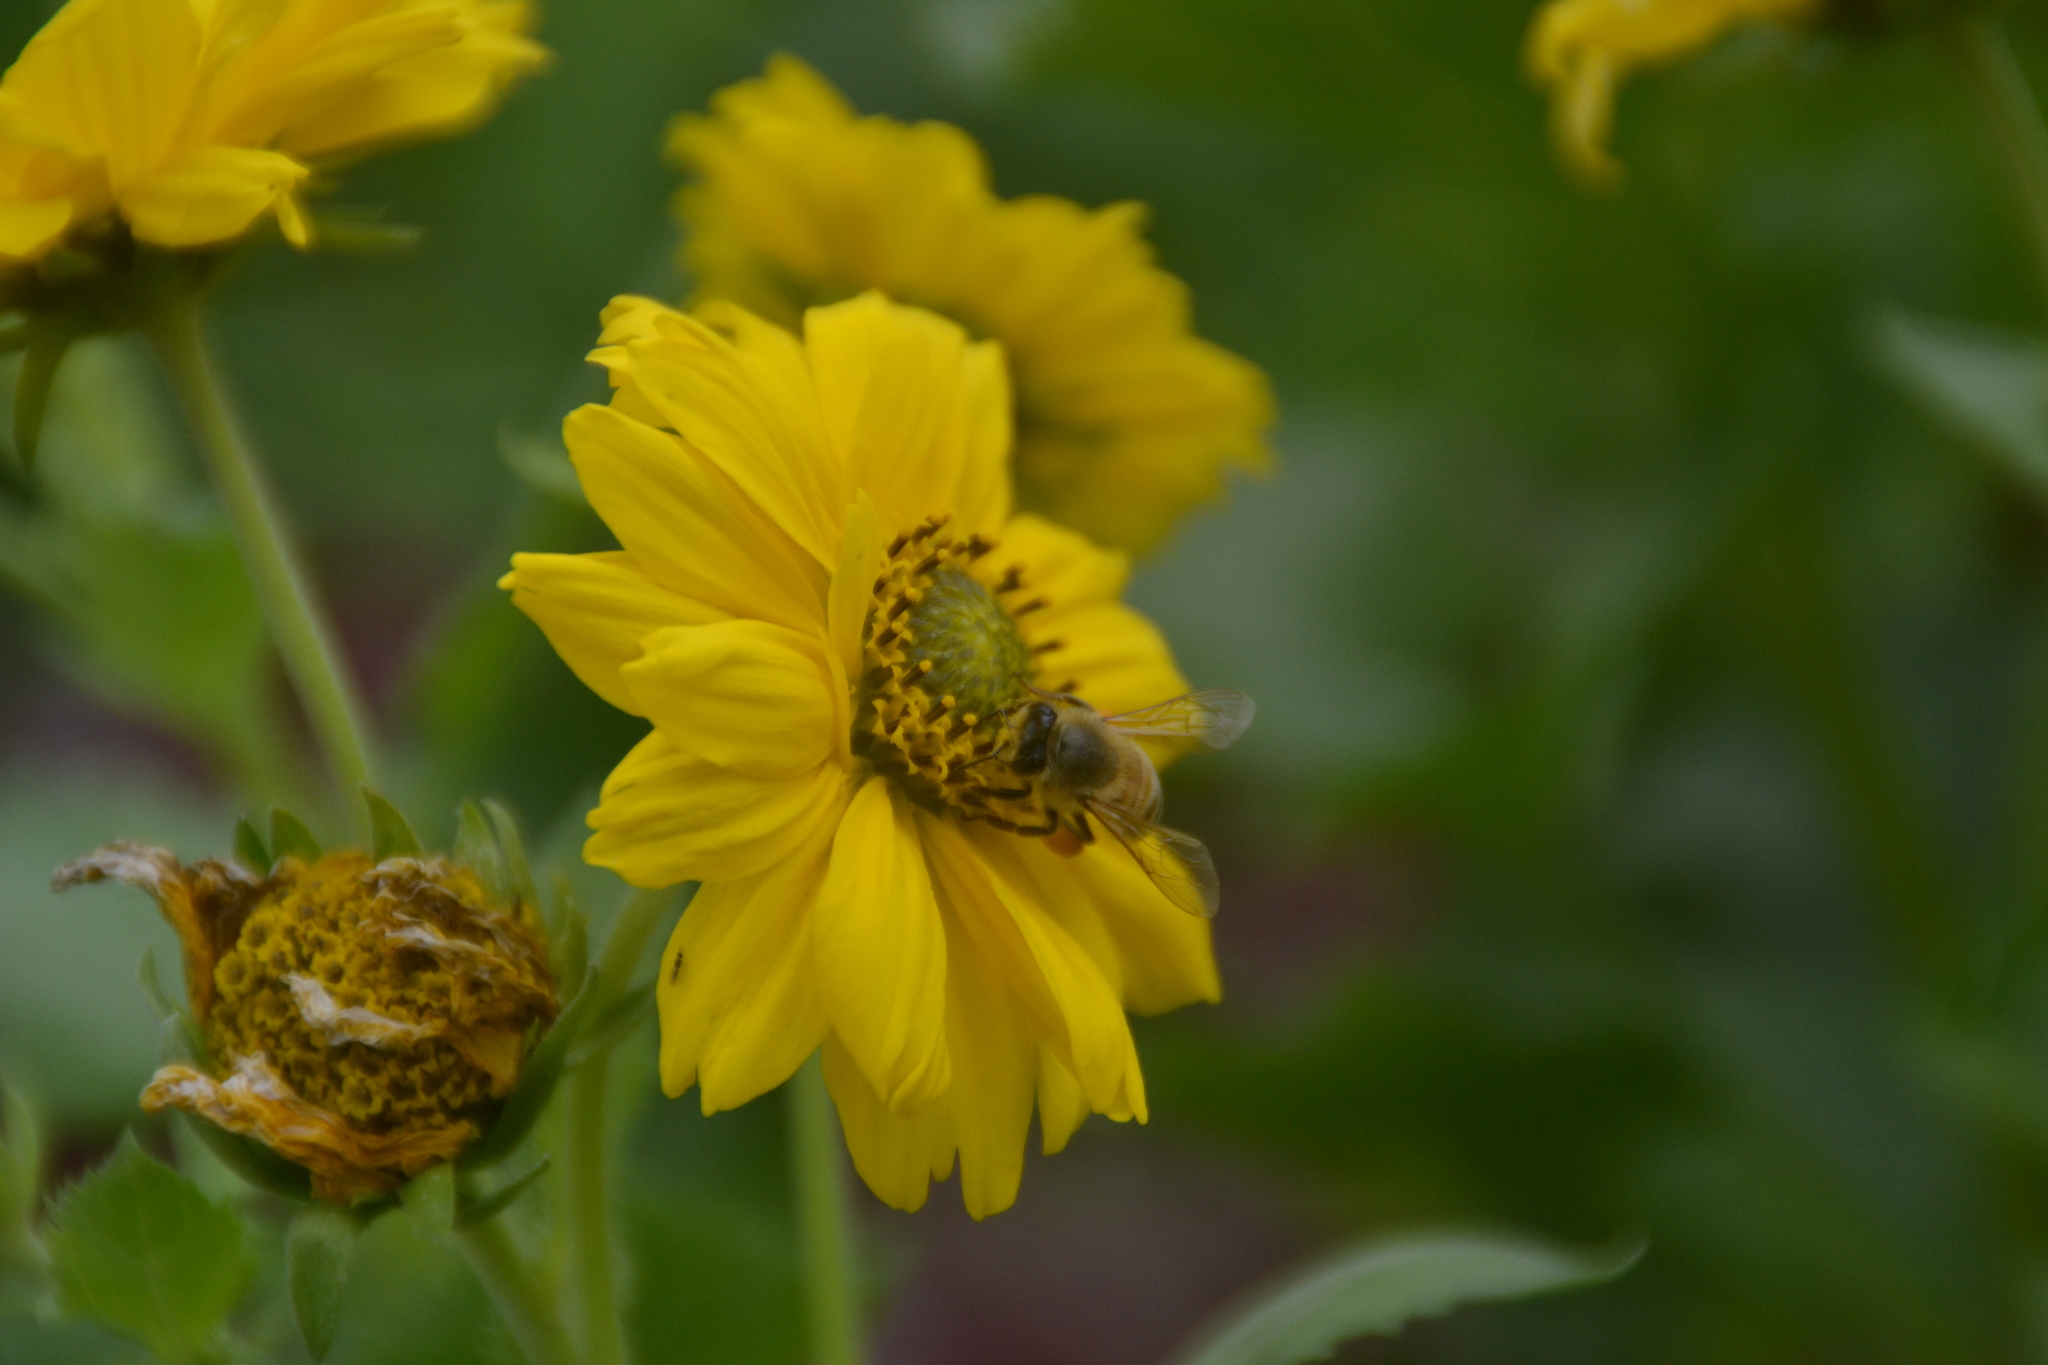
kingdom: Animalia
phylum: Arthropoda
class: Insecta
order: Hymenoptera
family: Apidae
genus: Apis
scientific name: Apis mellifera
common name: Honey bee
